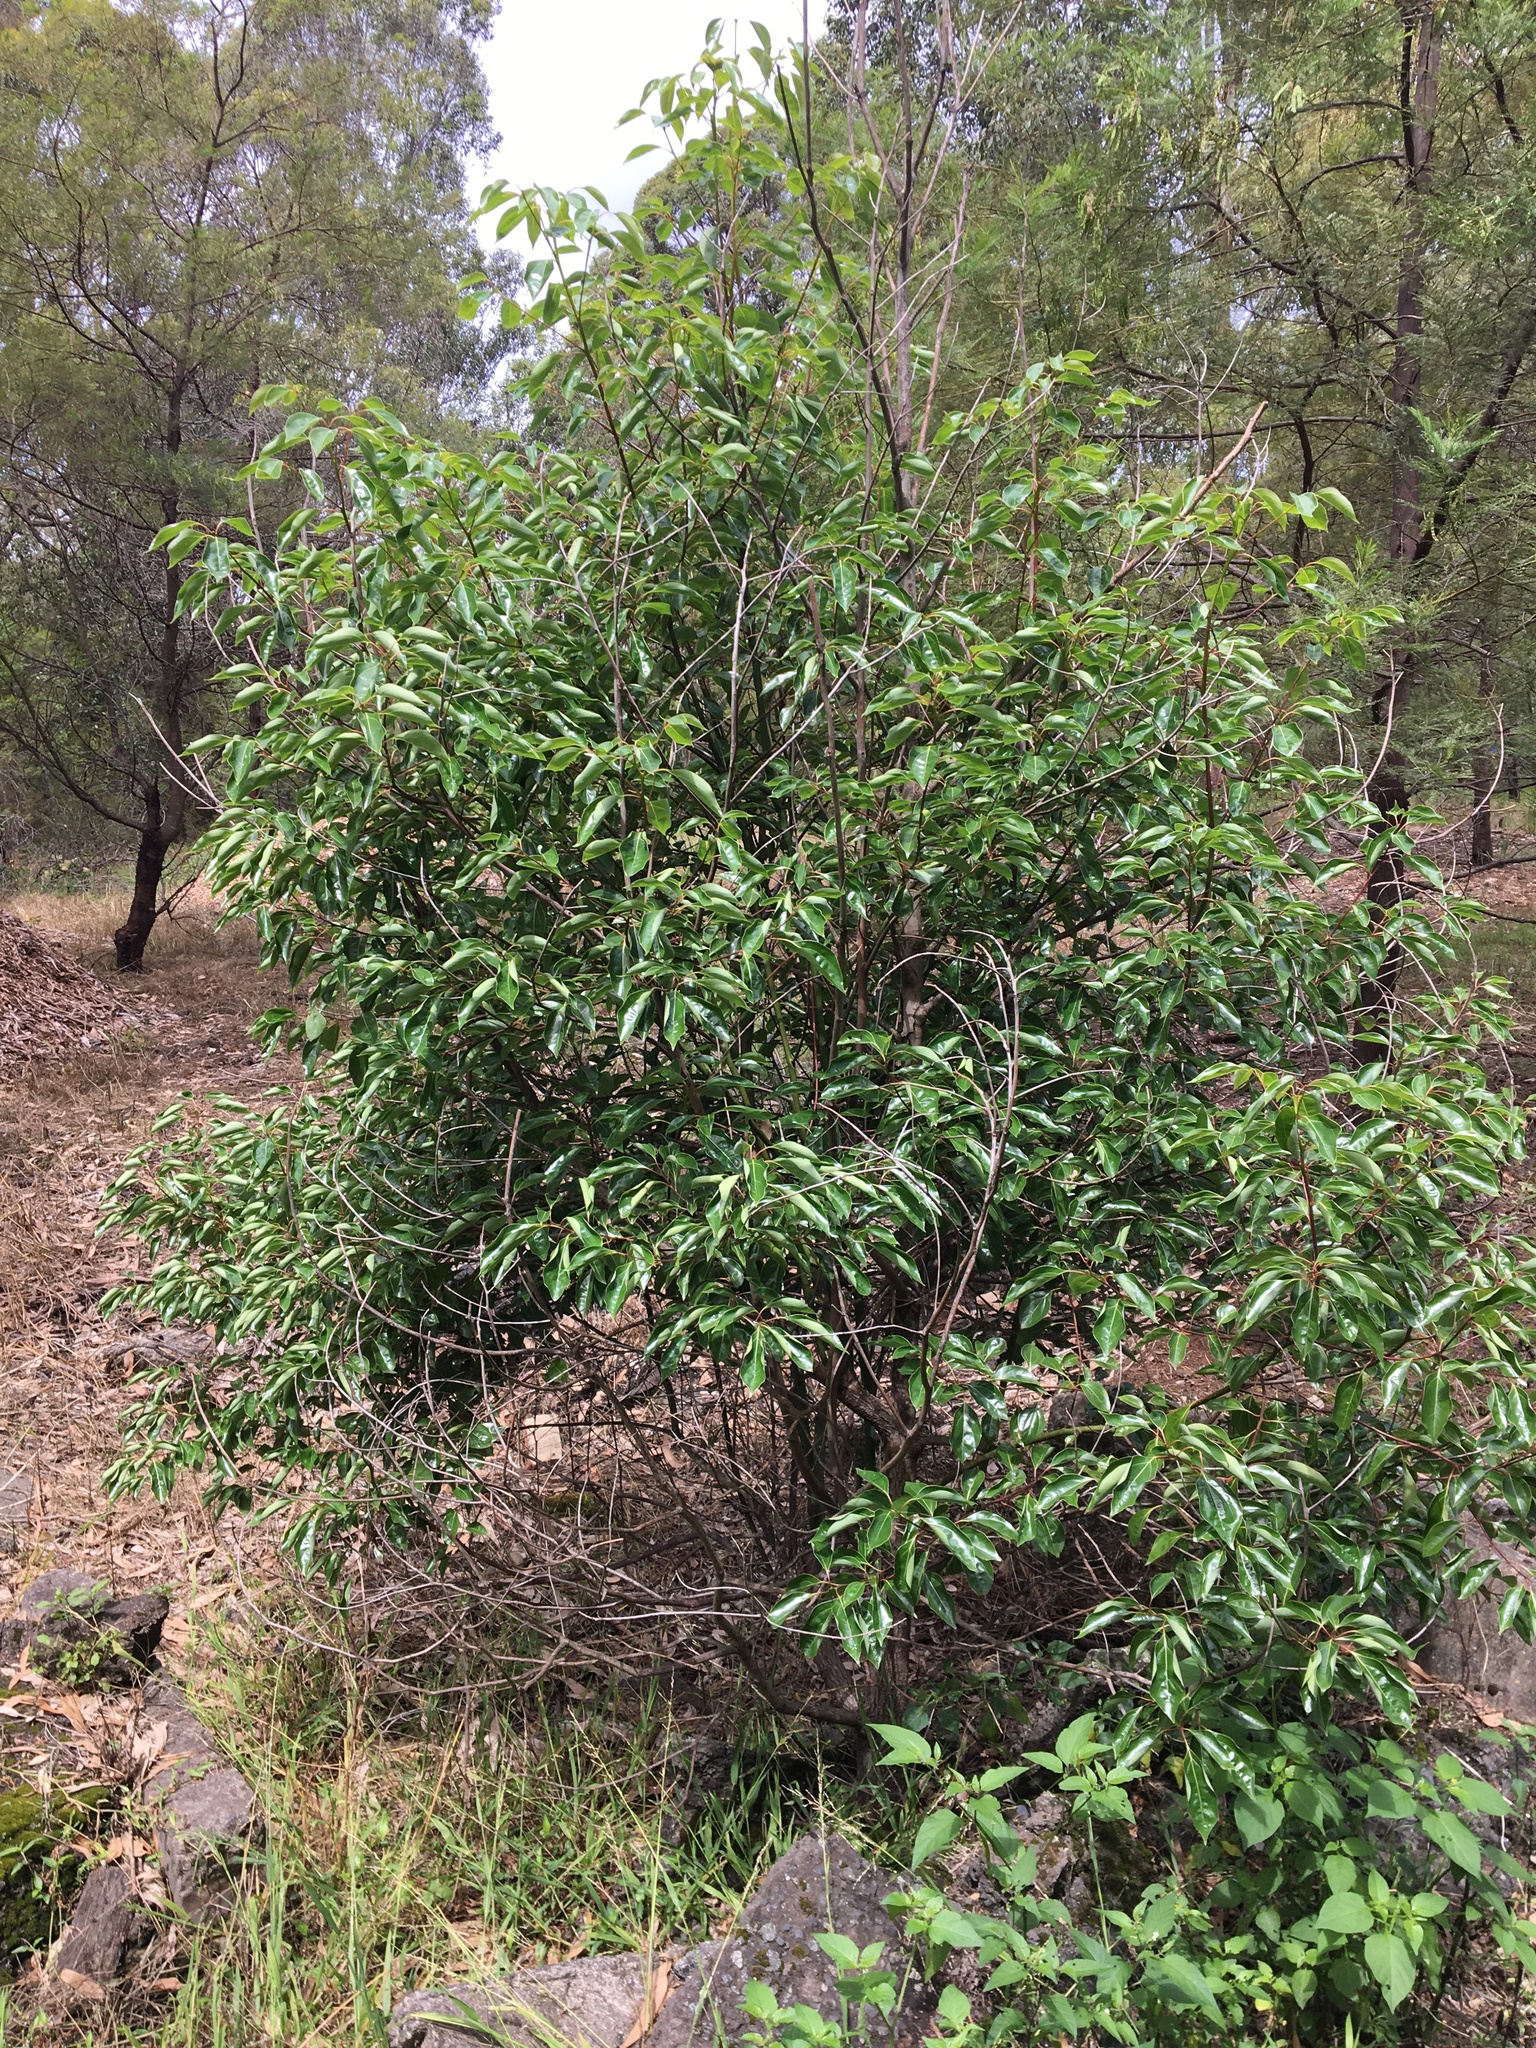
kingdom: Plantae
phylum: Tracheophyta
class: Magnoliopsida
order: Laurales
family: Lauraceae
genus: Cinnamomum
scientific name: Cinnamomum camphora
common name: Camphortree
